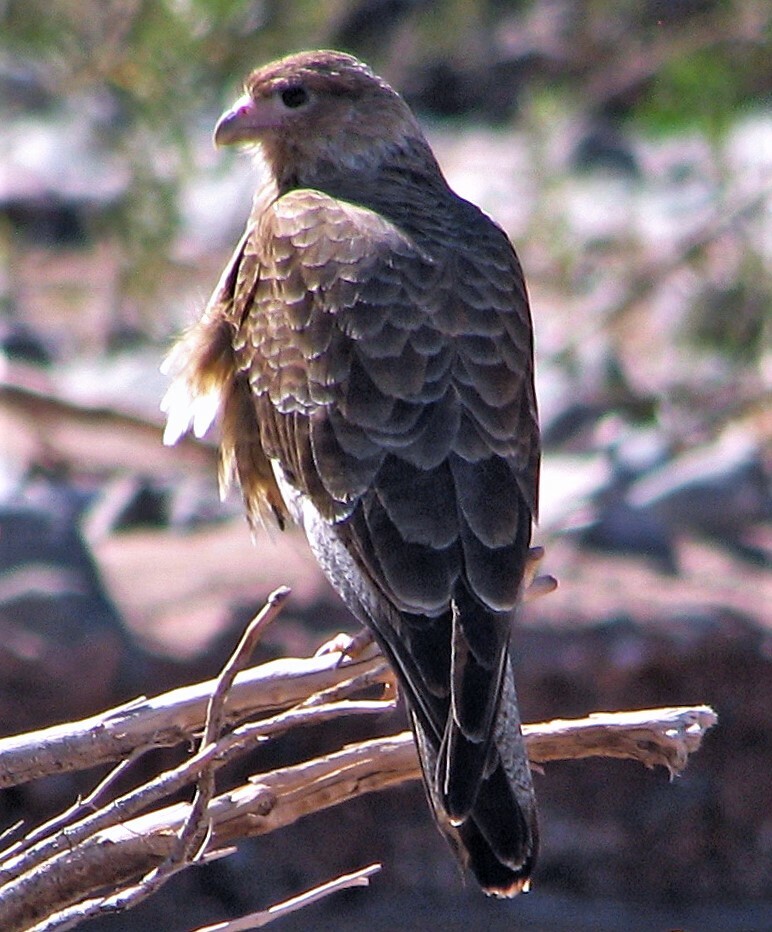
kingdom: Animalia
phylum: Chordata
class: Aves
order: Falconiformes
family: Falconidae
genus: Daptrius
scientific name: Daptrius
